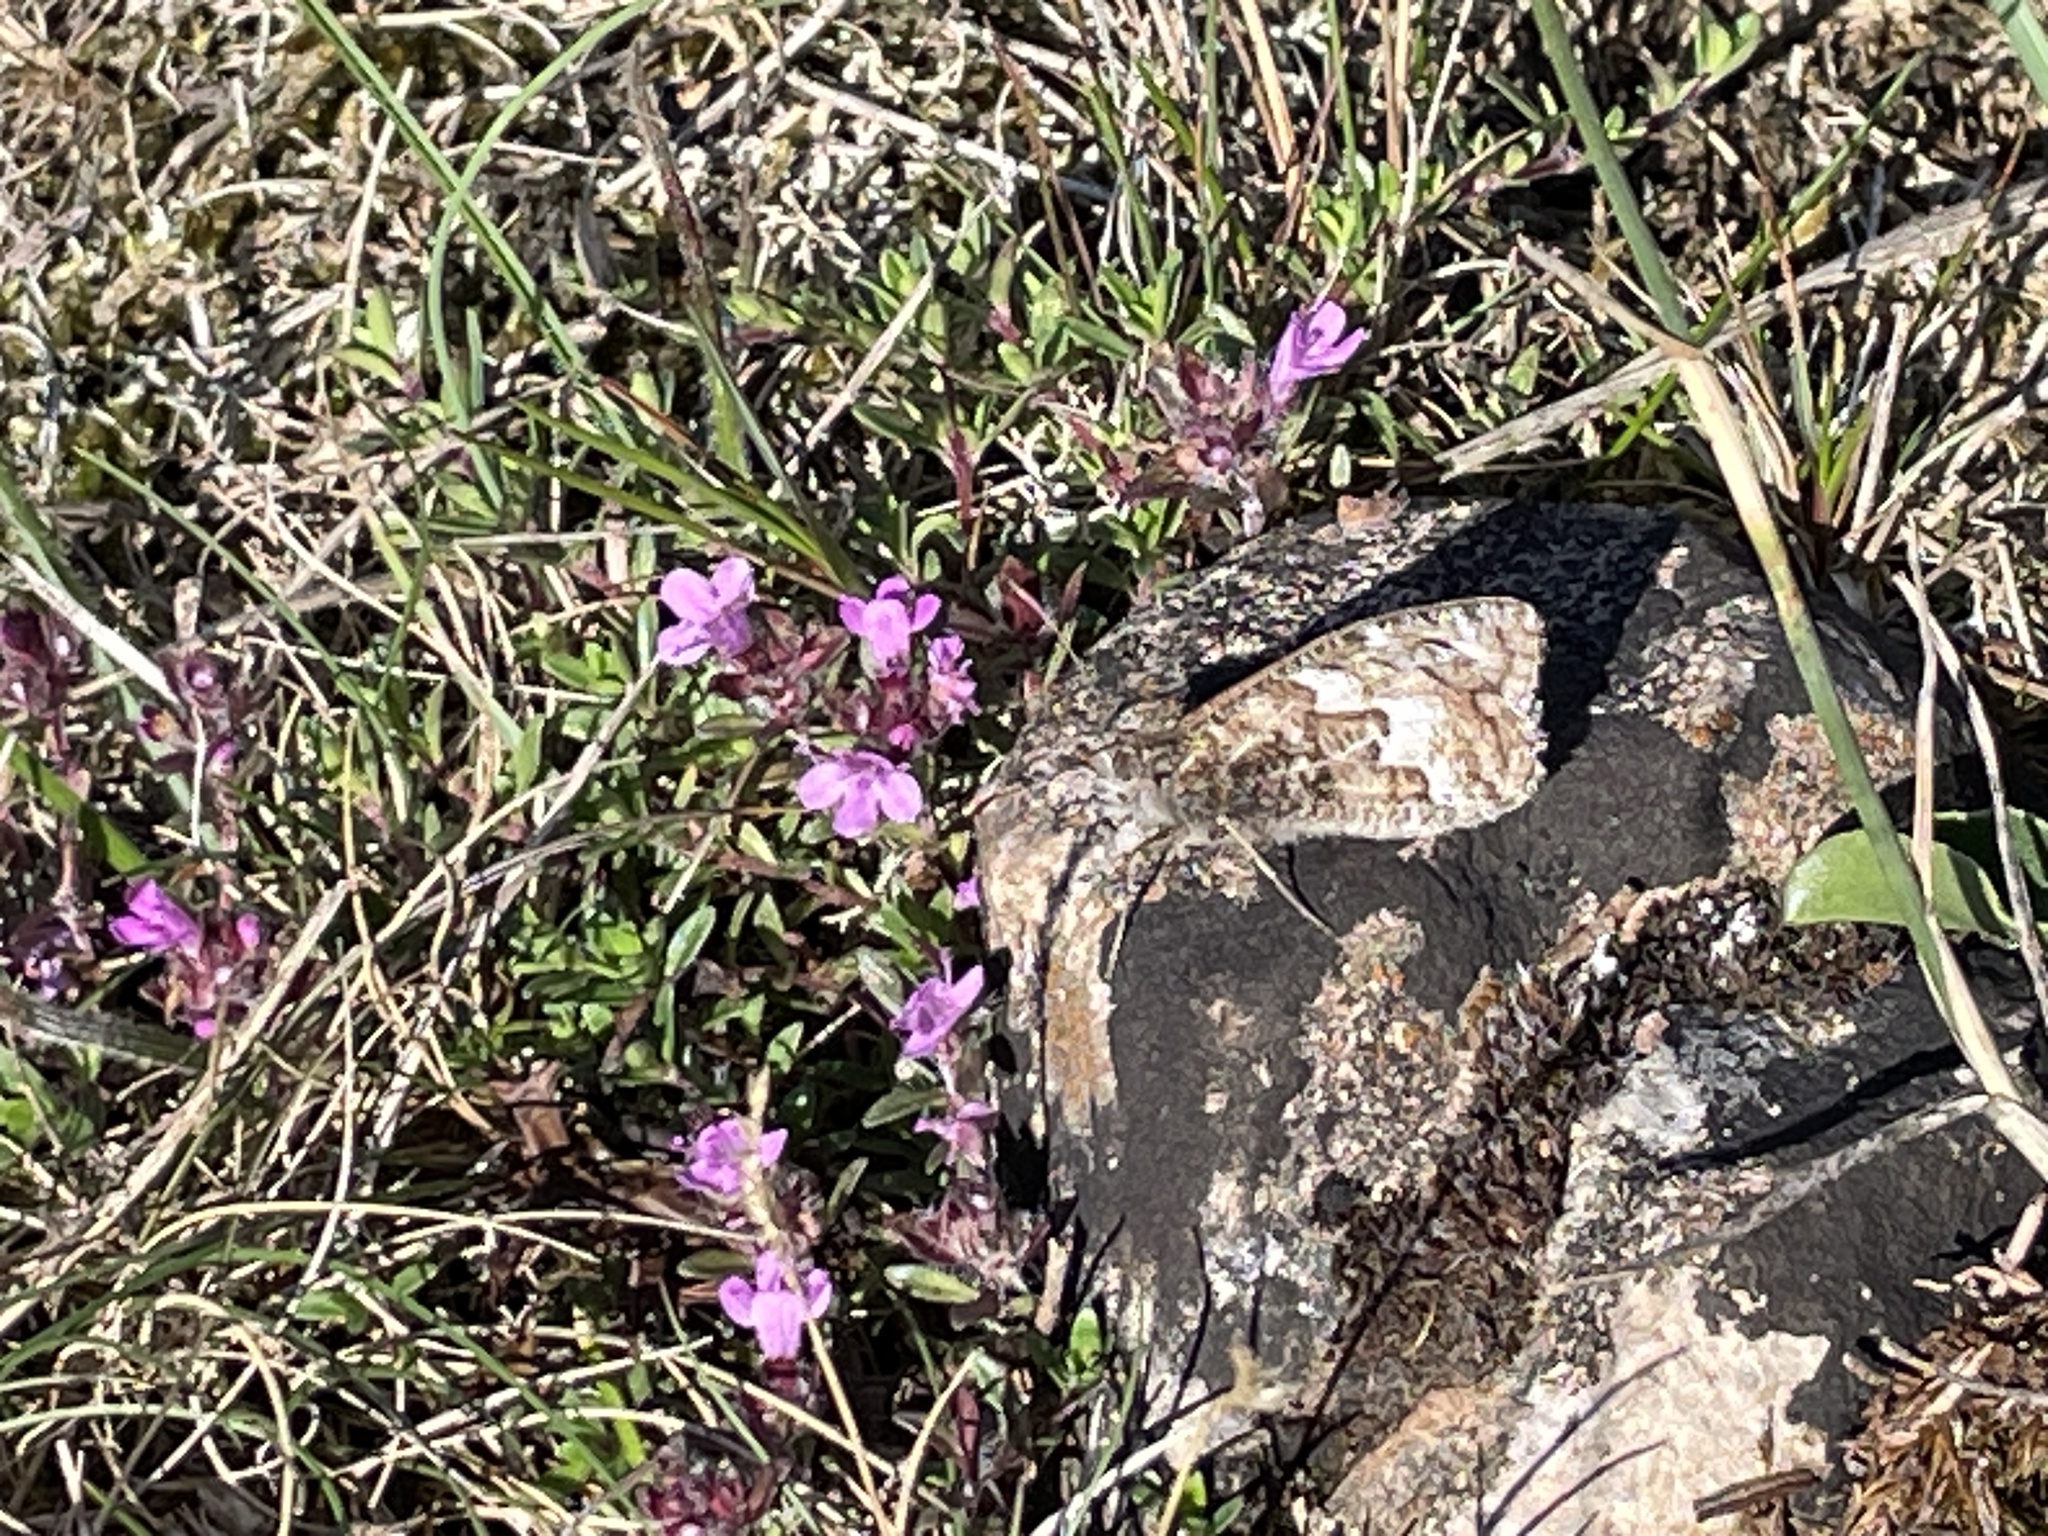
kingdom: Animalia
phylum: Arthropoda
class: Insecta
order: Lepidoptera
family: Nymphalidae
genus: Hipparchia
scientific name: Hipparchia semele
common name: Grayling
